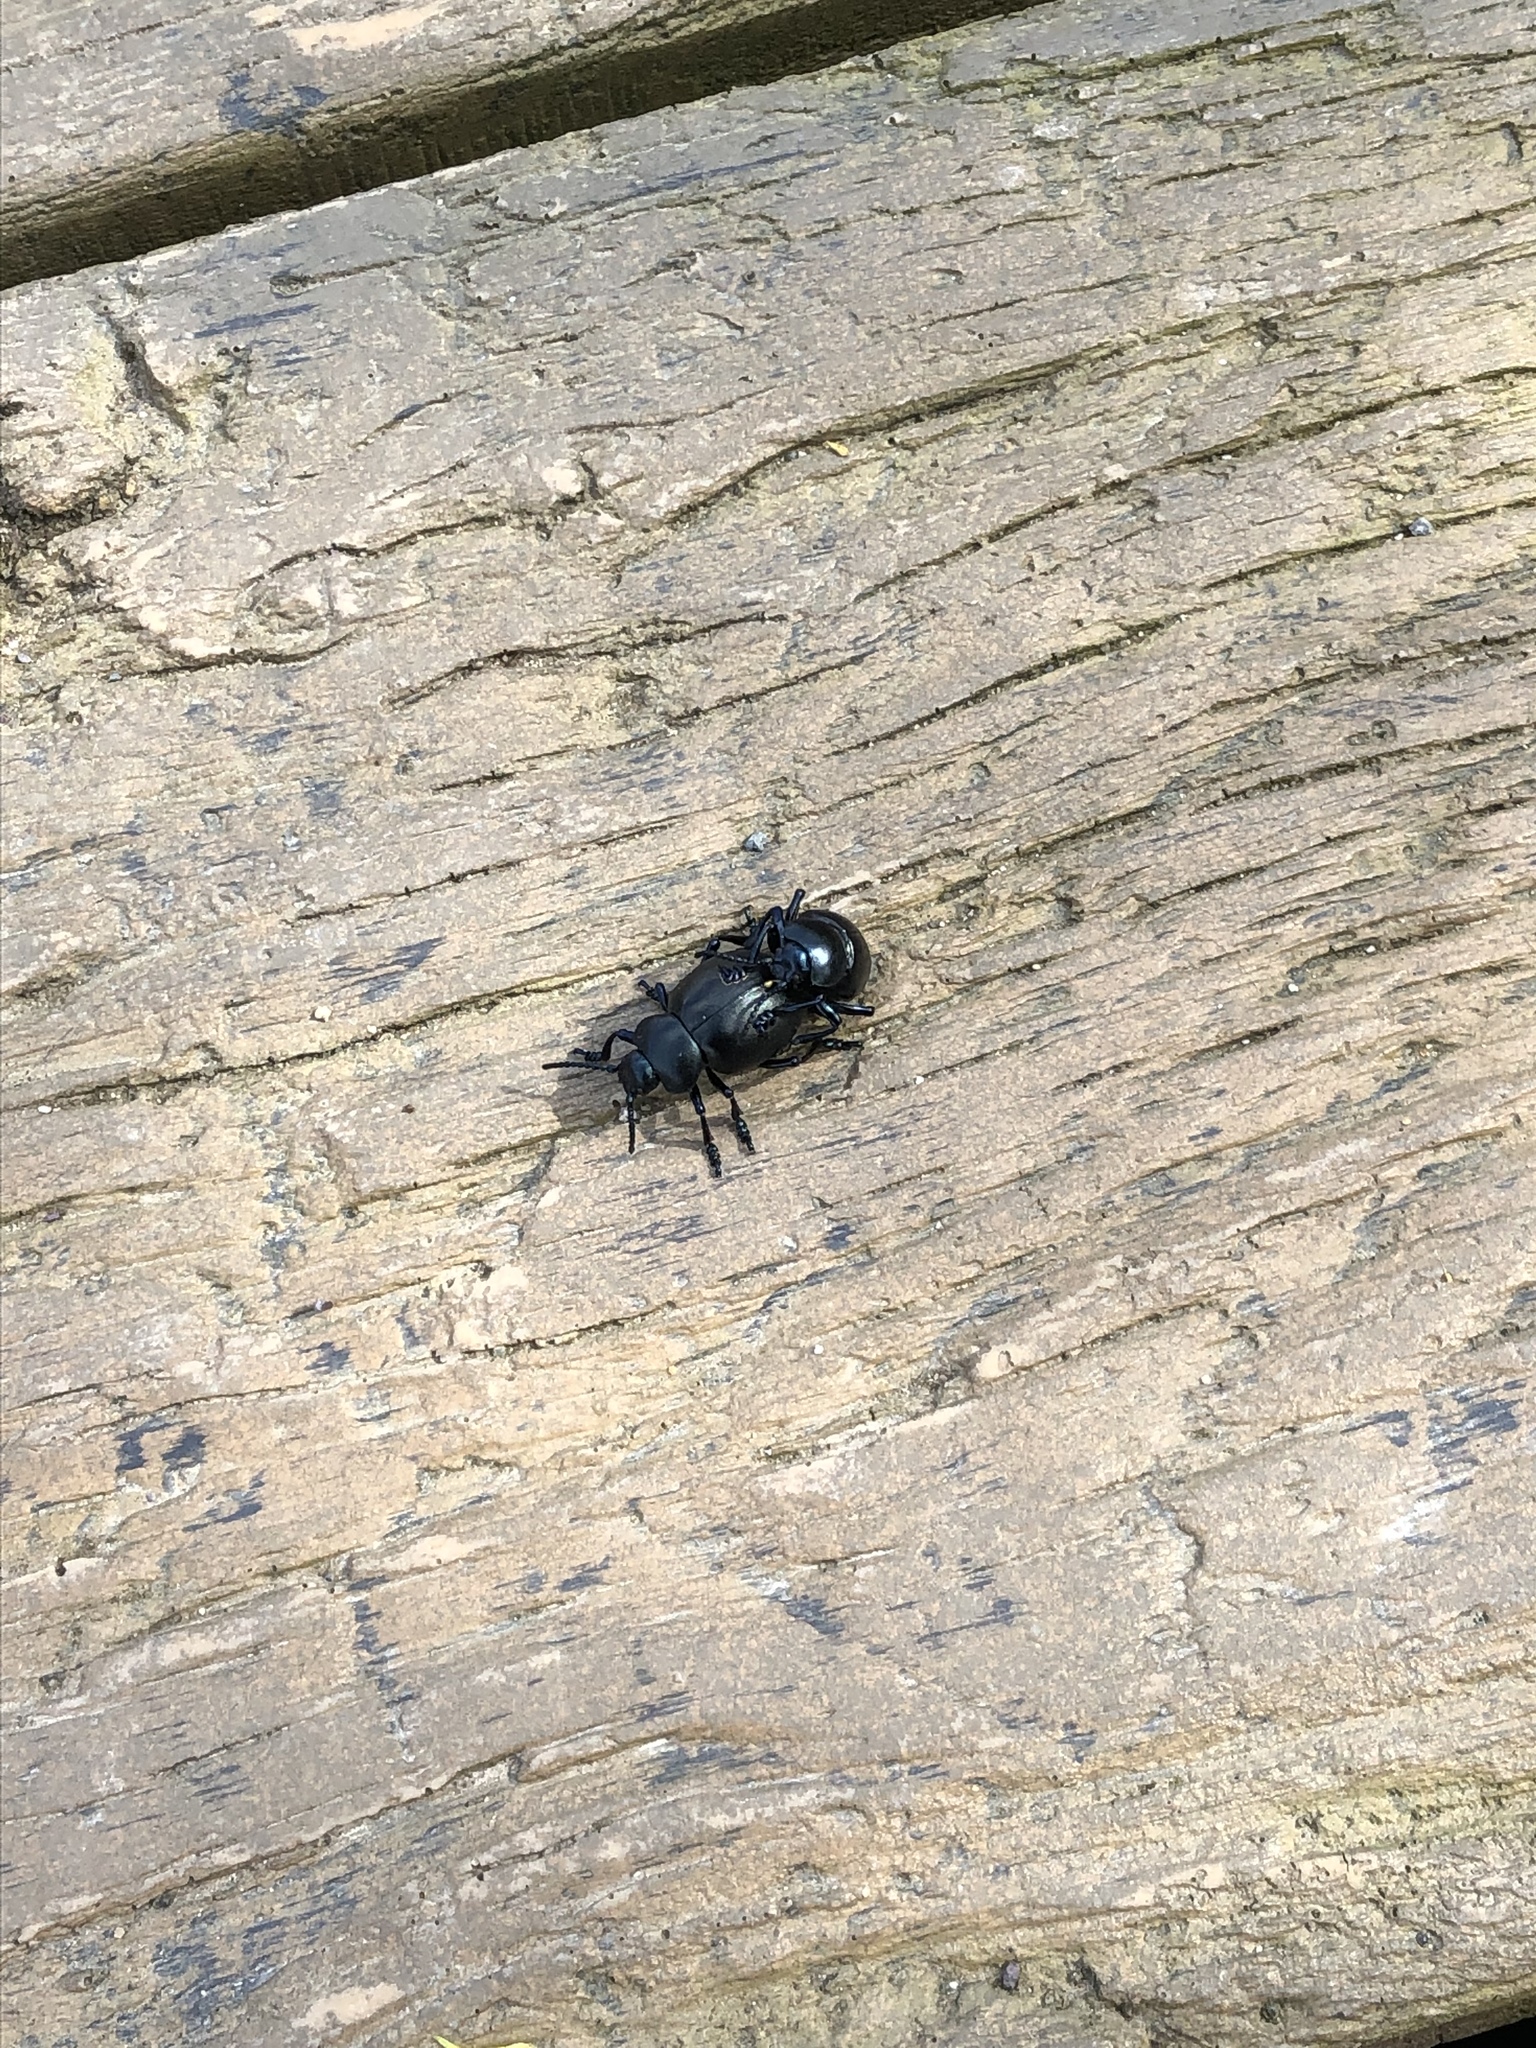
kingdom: Animalia
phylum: Arthropoda
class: Insecta
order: Coleoptera
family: Chrysomelidae
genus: Timarcha
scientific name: Timarcha tenebricosa
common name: Bloody-nosed beetle
